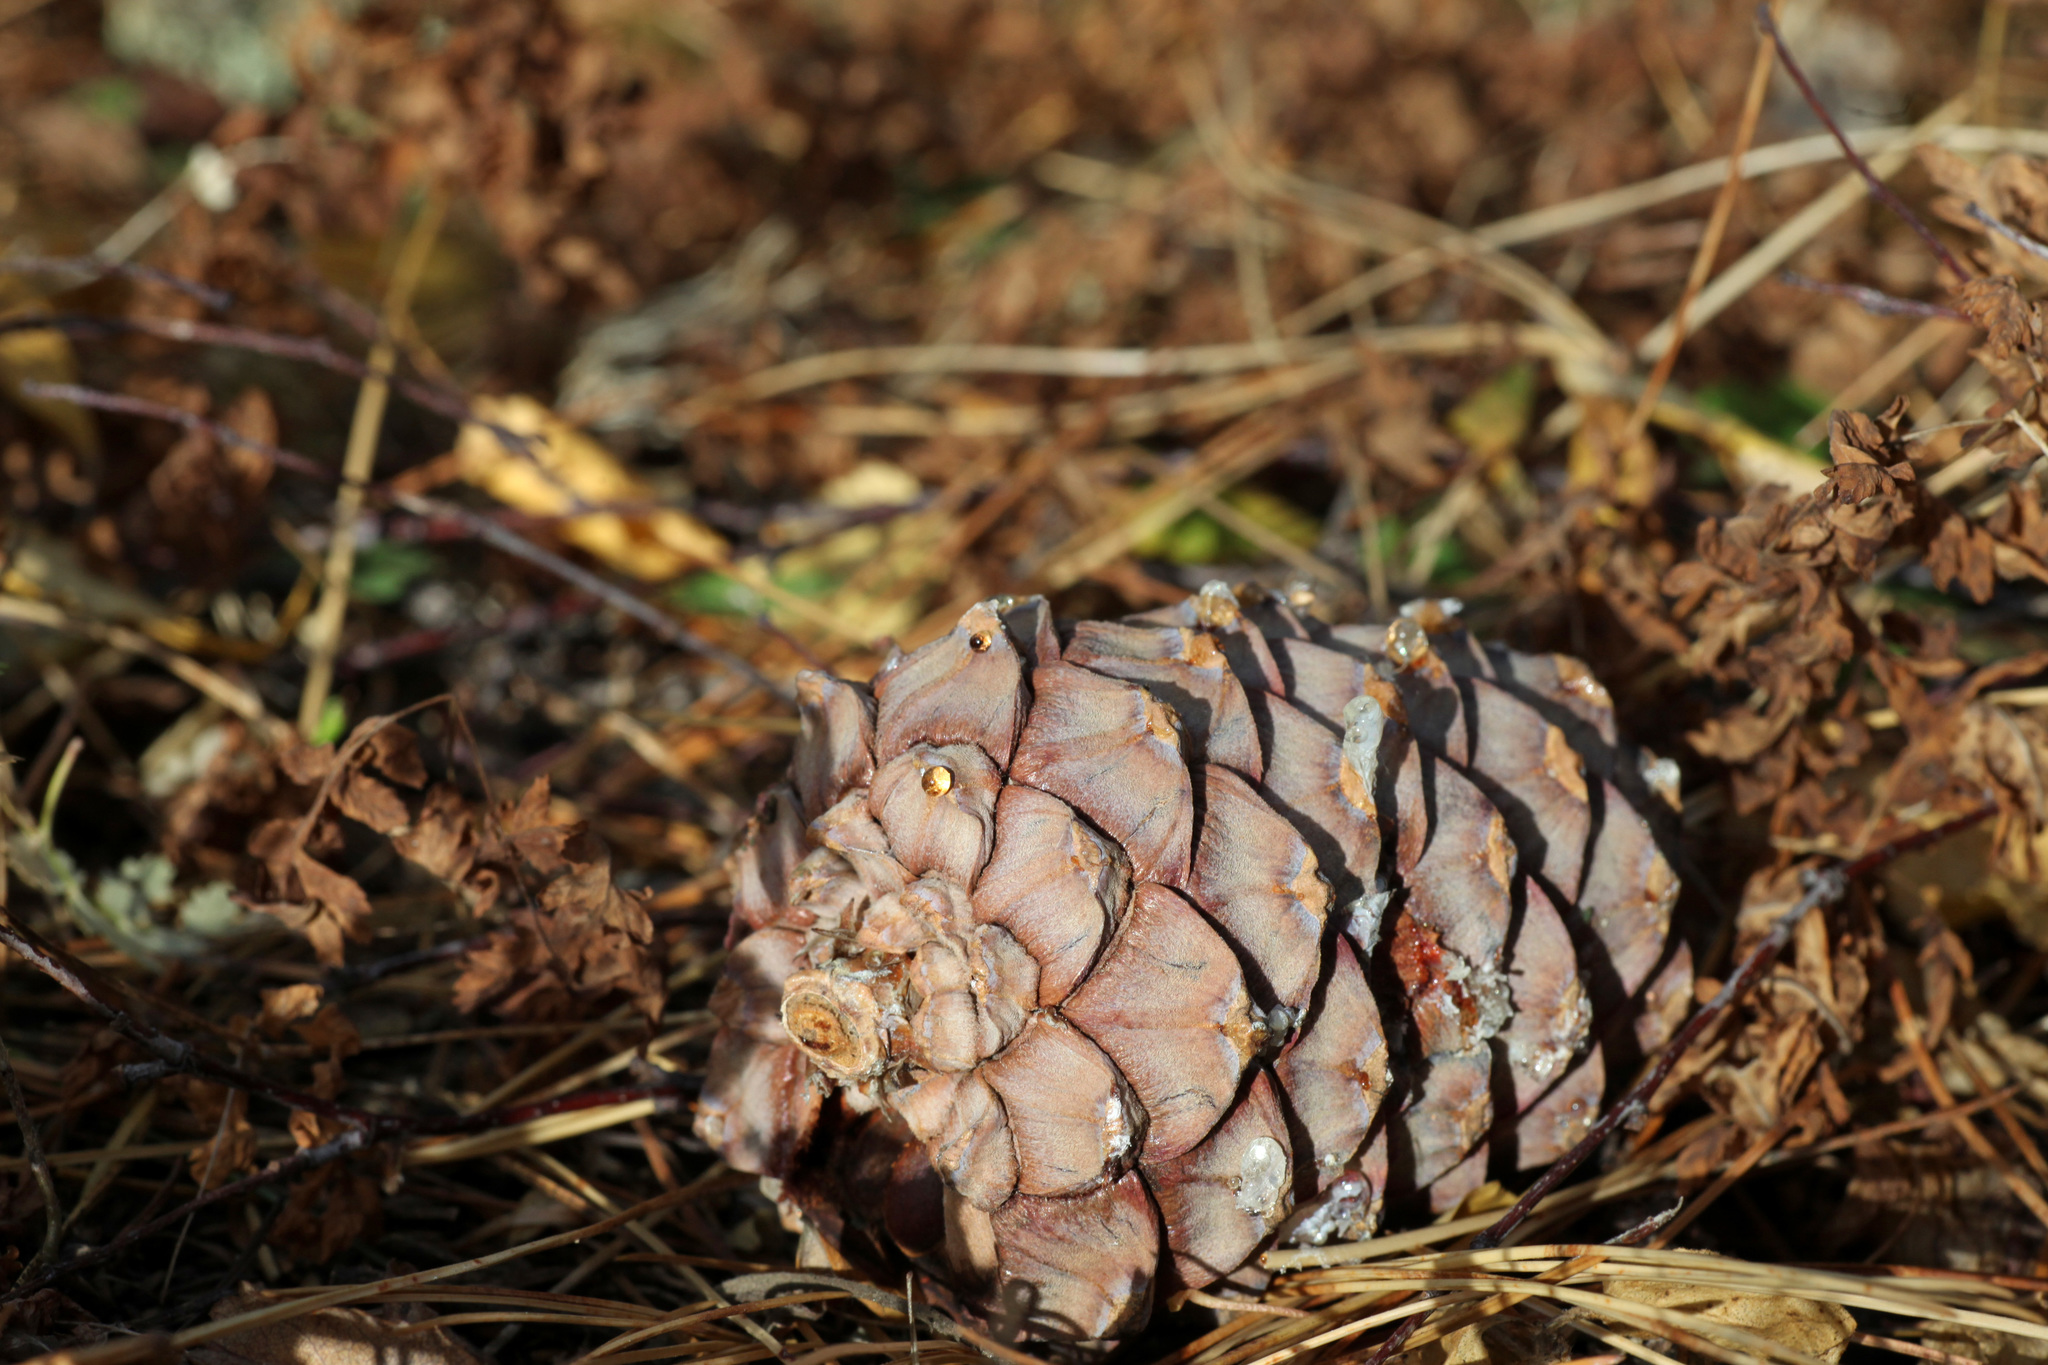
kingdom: Plantae
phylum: Tracheophyta
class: Pinopsida
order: Pinales
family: Pinaceae
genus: Pinus
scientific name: Pinus sibirica
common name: Siberian pine
